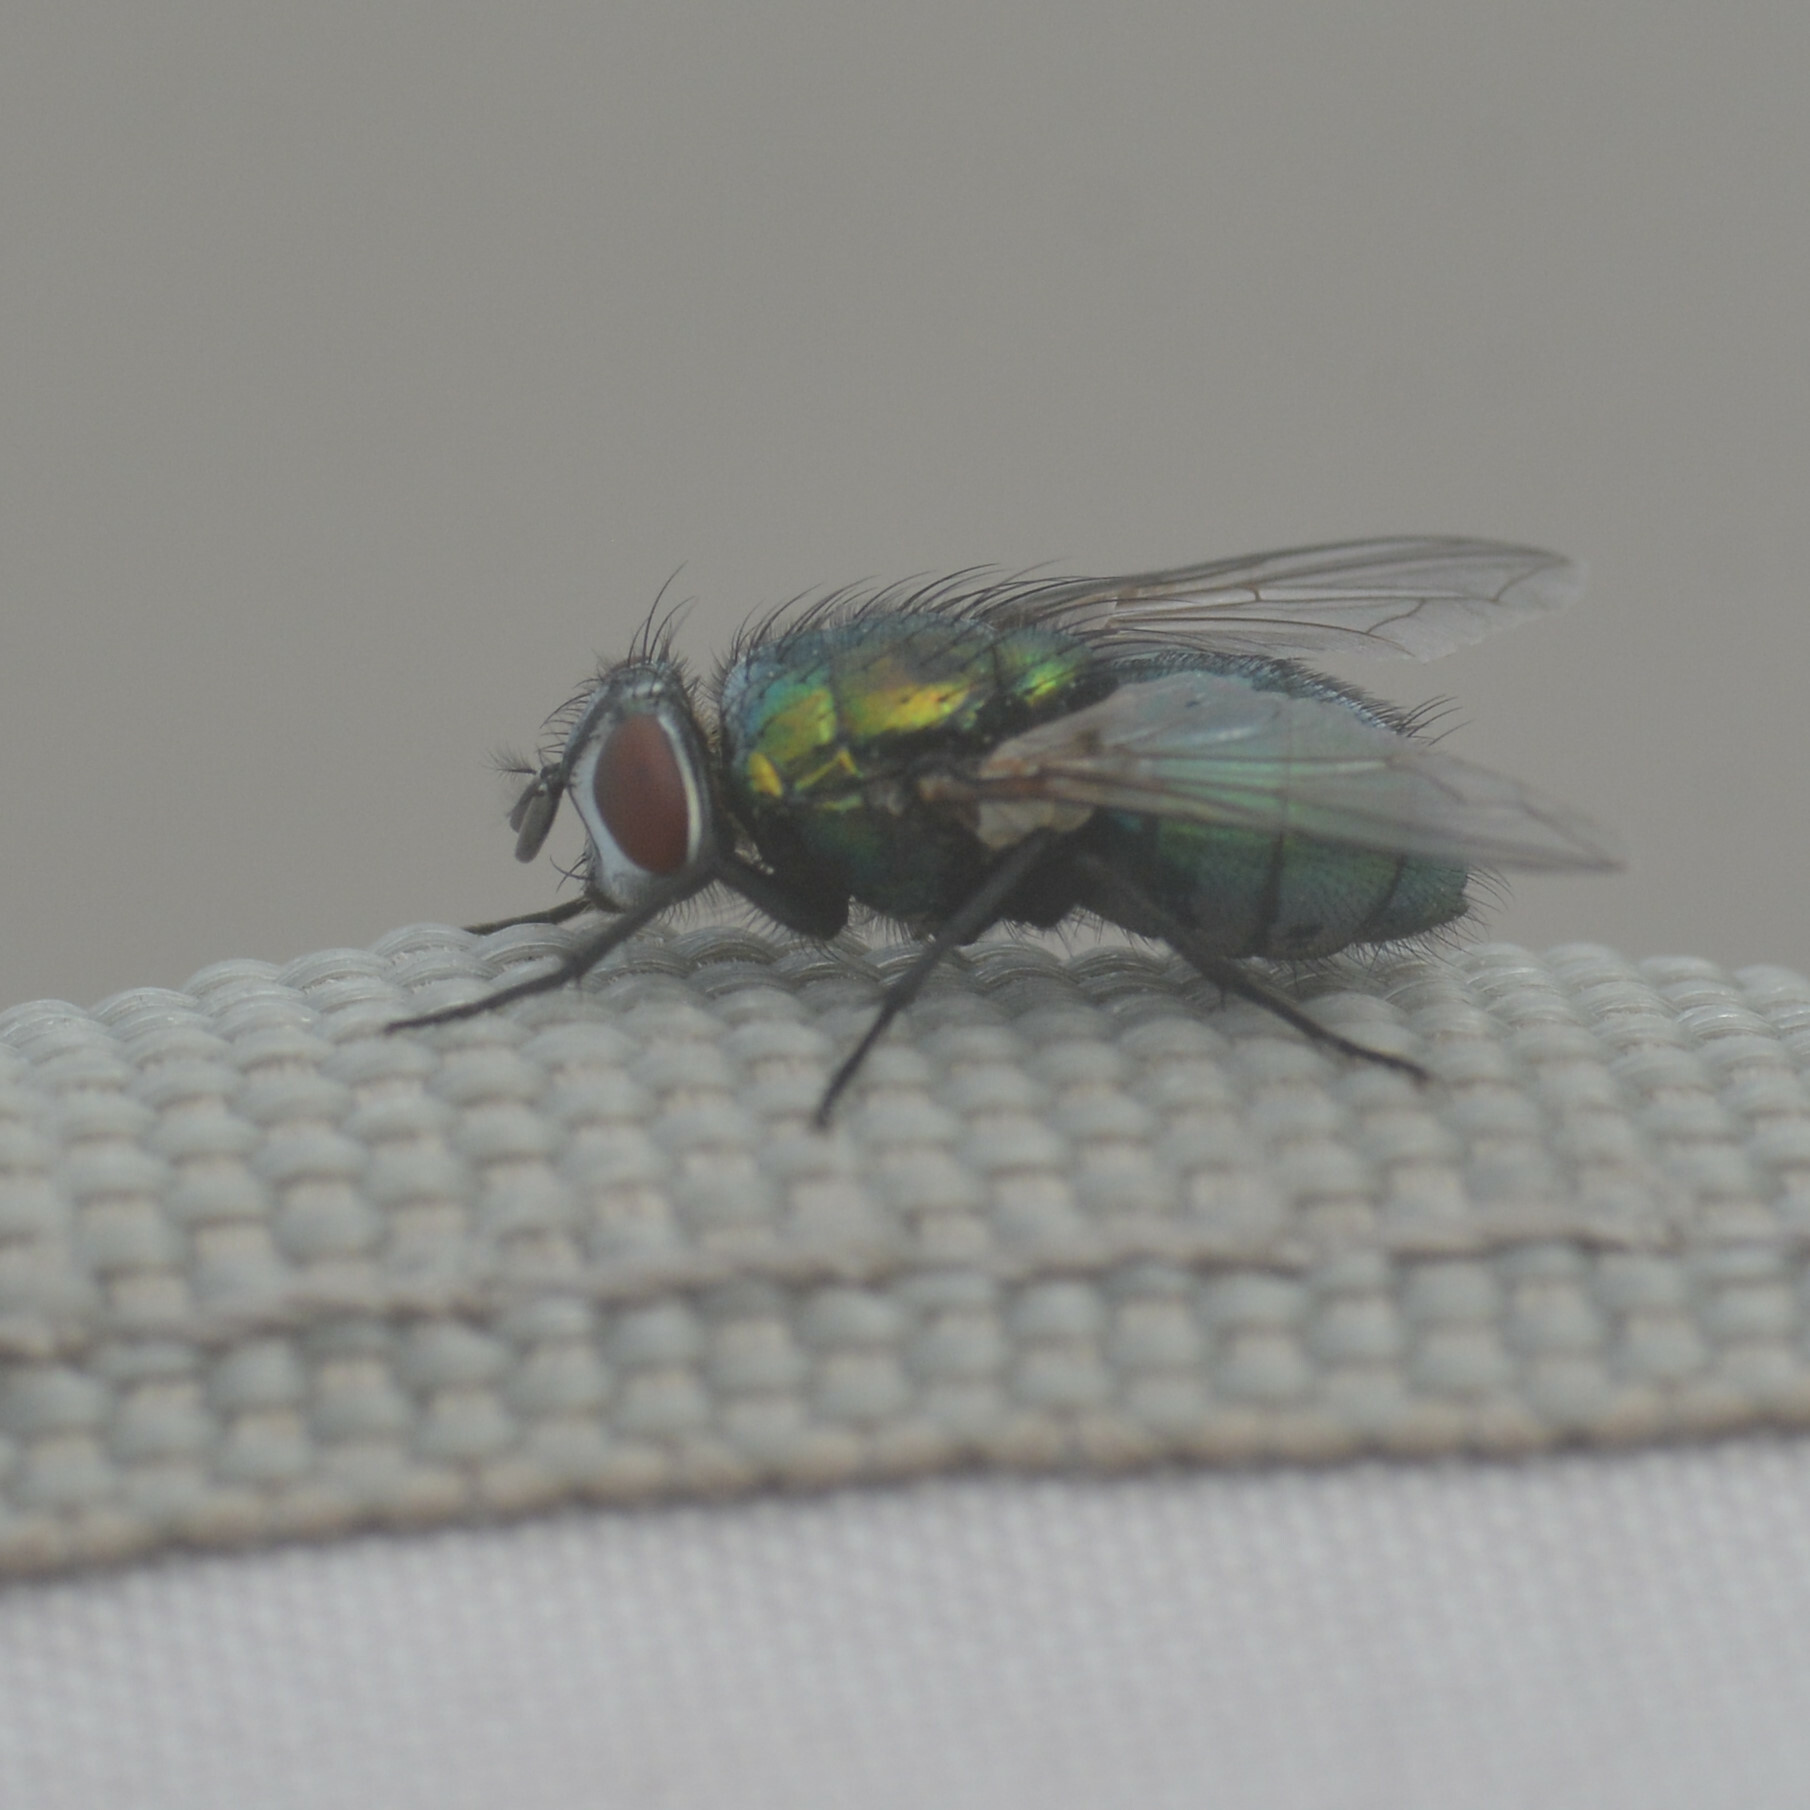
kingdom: Animalia
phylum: Arthropoda
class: Insecta
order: Diptera
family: Calliphoridae
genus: Lucilia
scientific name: Lucilia sericata
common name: Blow fly
